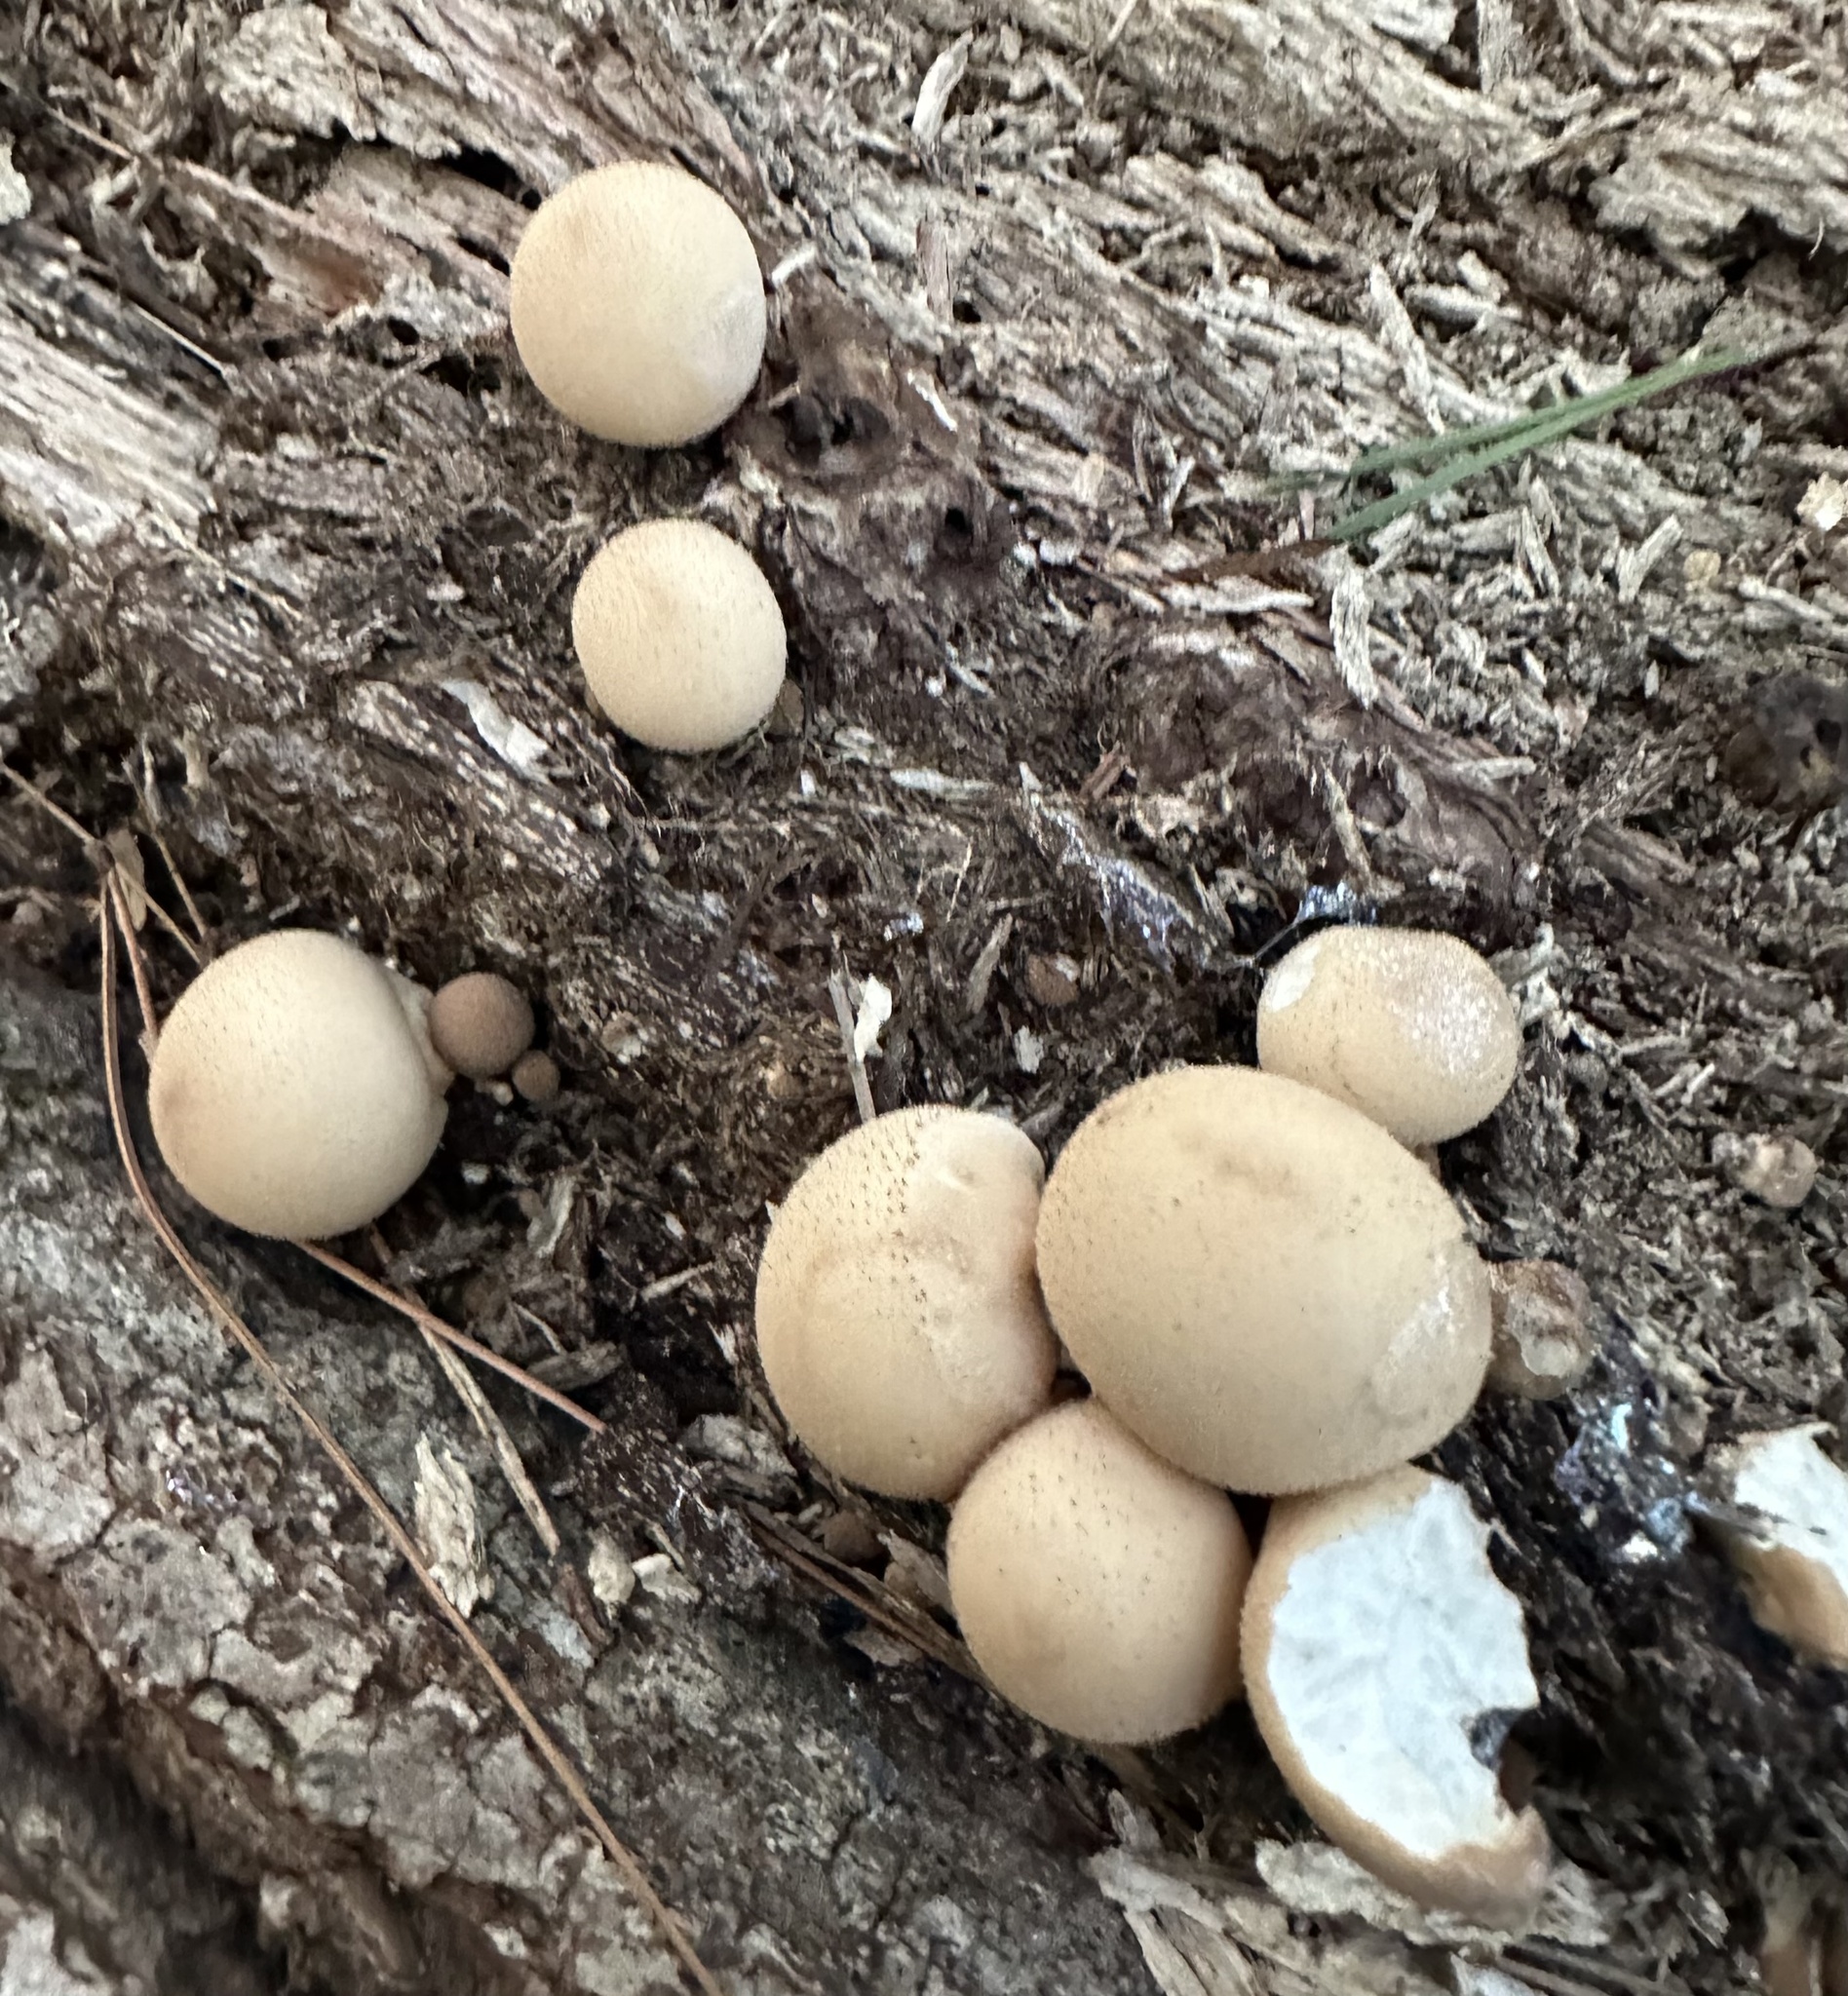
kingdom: Fungi
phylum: Basidiomycota
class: Agaricomycetes
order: Agaricales
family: Lycoperdaceae
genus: Apioperdon
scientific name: Apioperdon pyriforme
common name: Pear-shaped puffball
